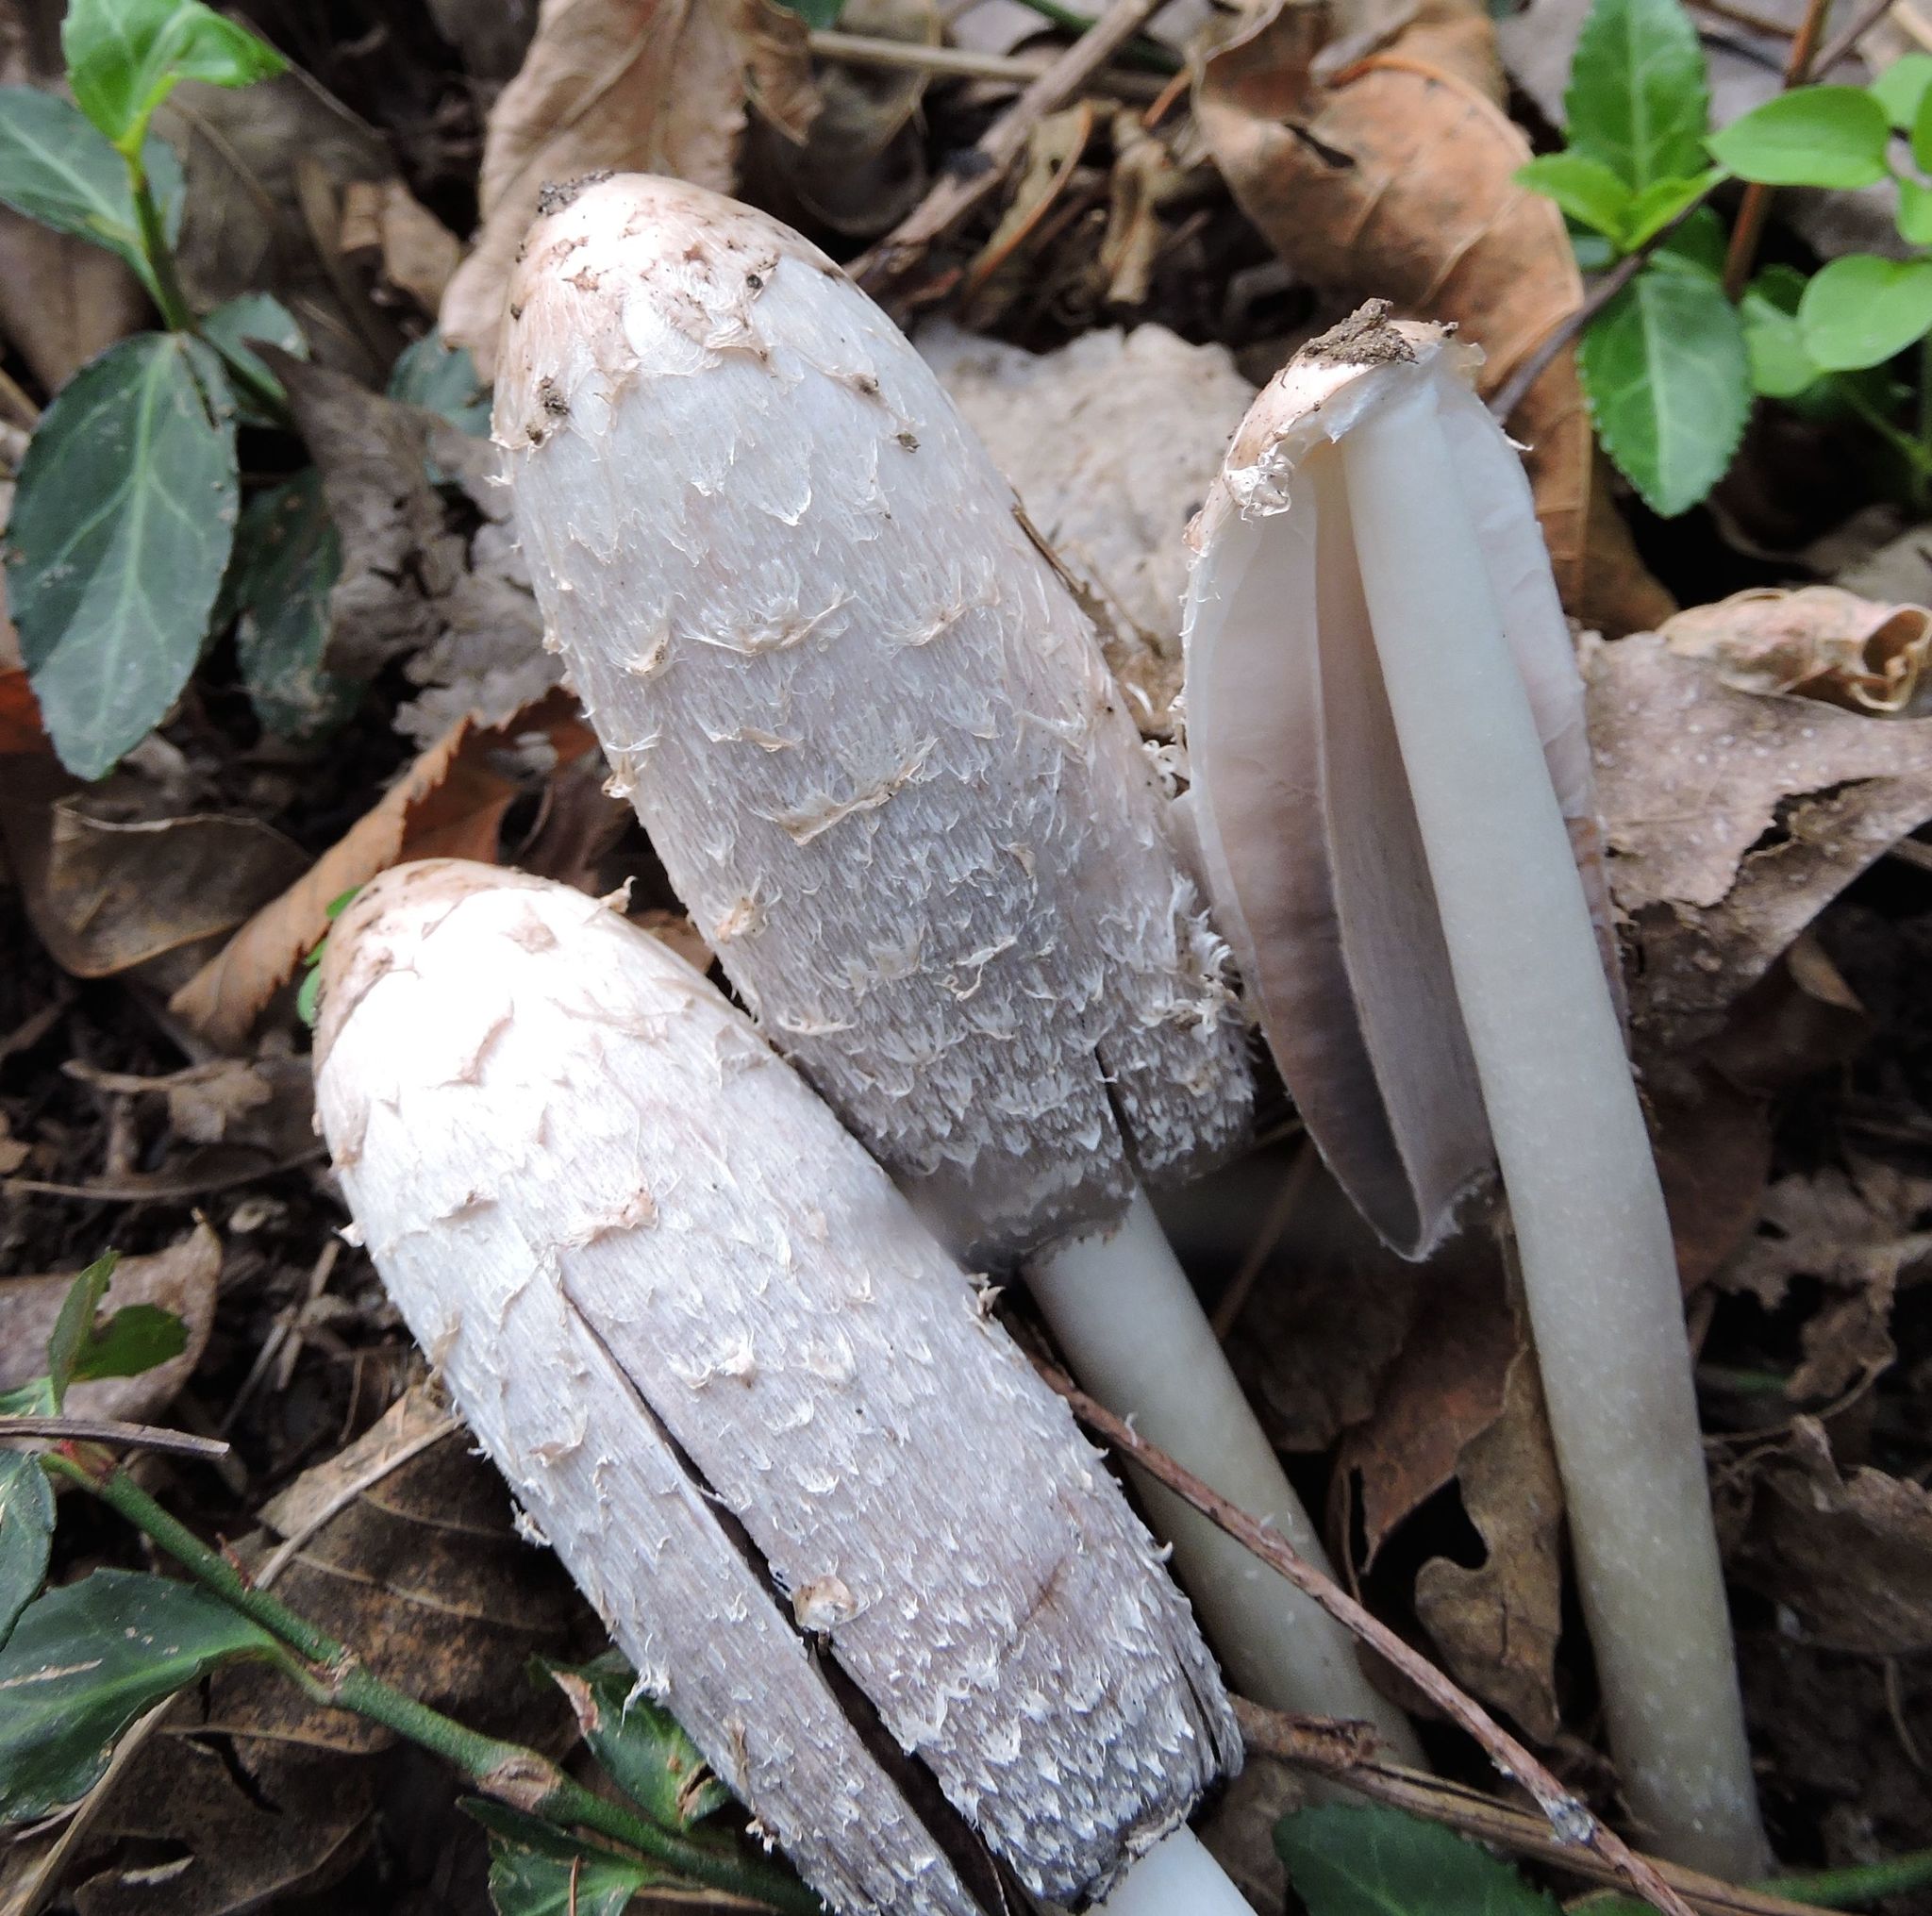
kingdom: Fungi
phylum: Basidiomycota
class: Agaricomycetes
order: Agaricales
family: Agaricaceae
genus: Coprinus
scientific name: Coprinus comatus
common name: Lawyer's wig
